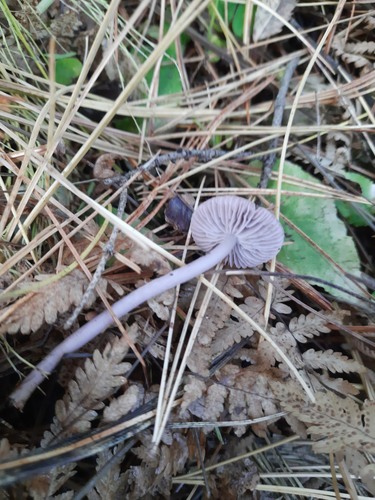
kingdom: Fungi
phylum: Basidiomycota
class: Agaricomycetes
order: Agaricales
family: Mycenaceae
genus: Mycena
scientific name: Mycena pura
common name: Lilac bonnet
